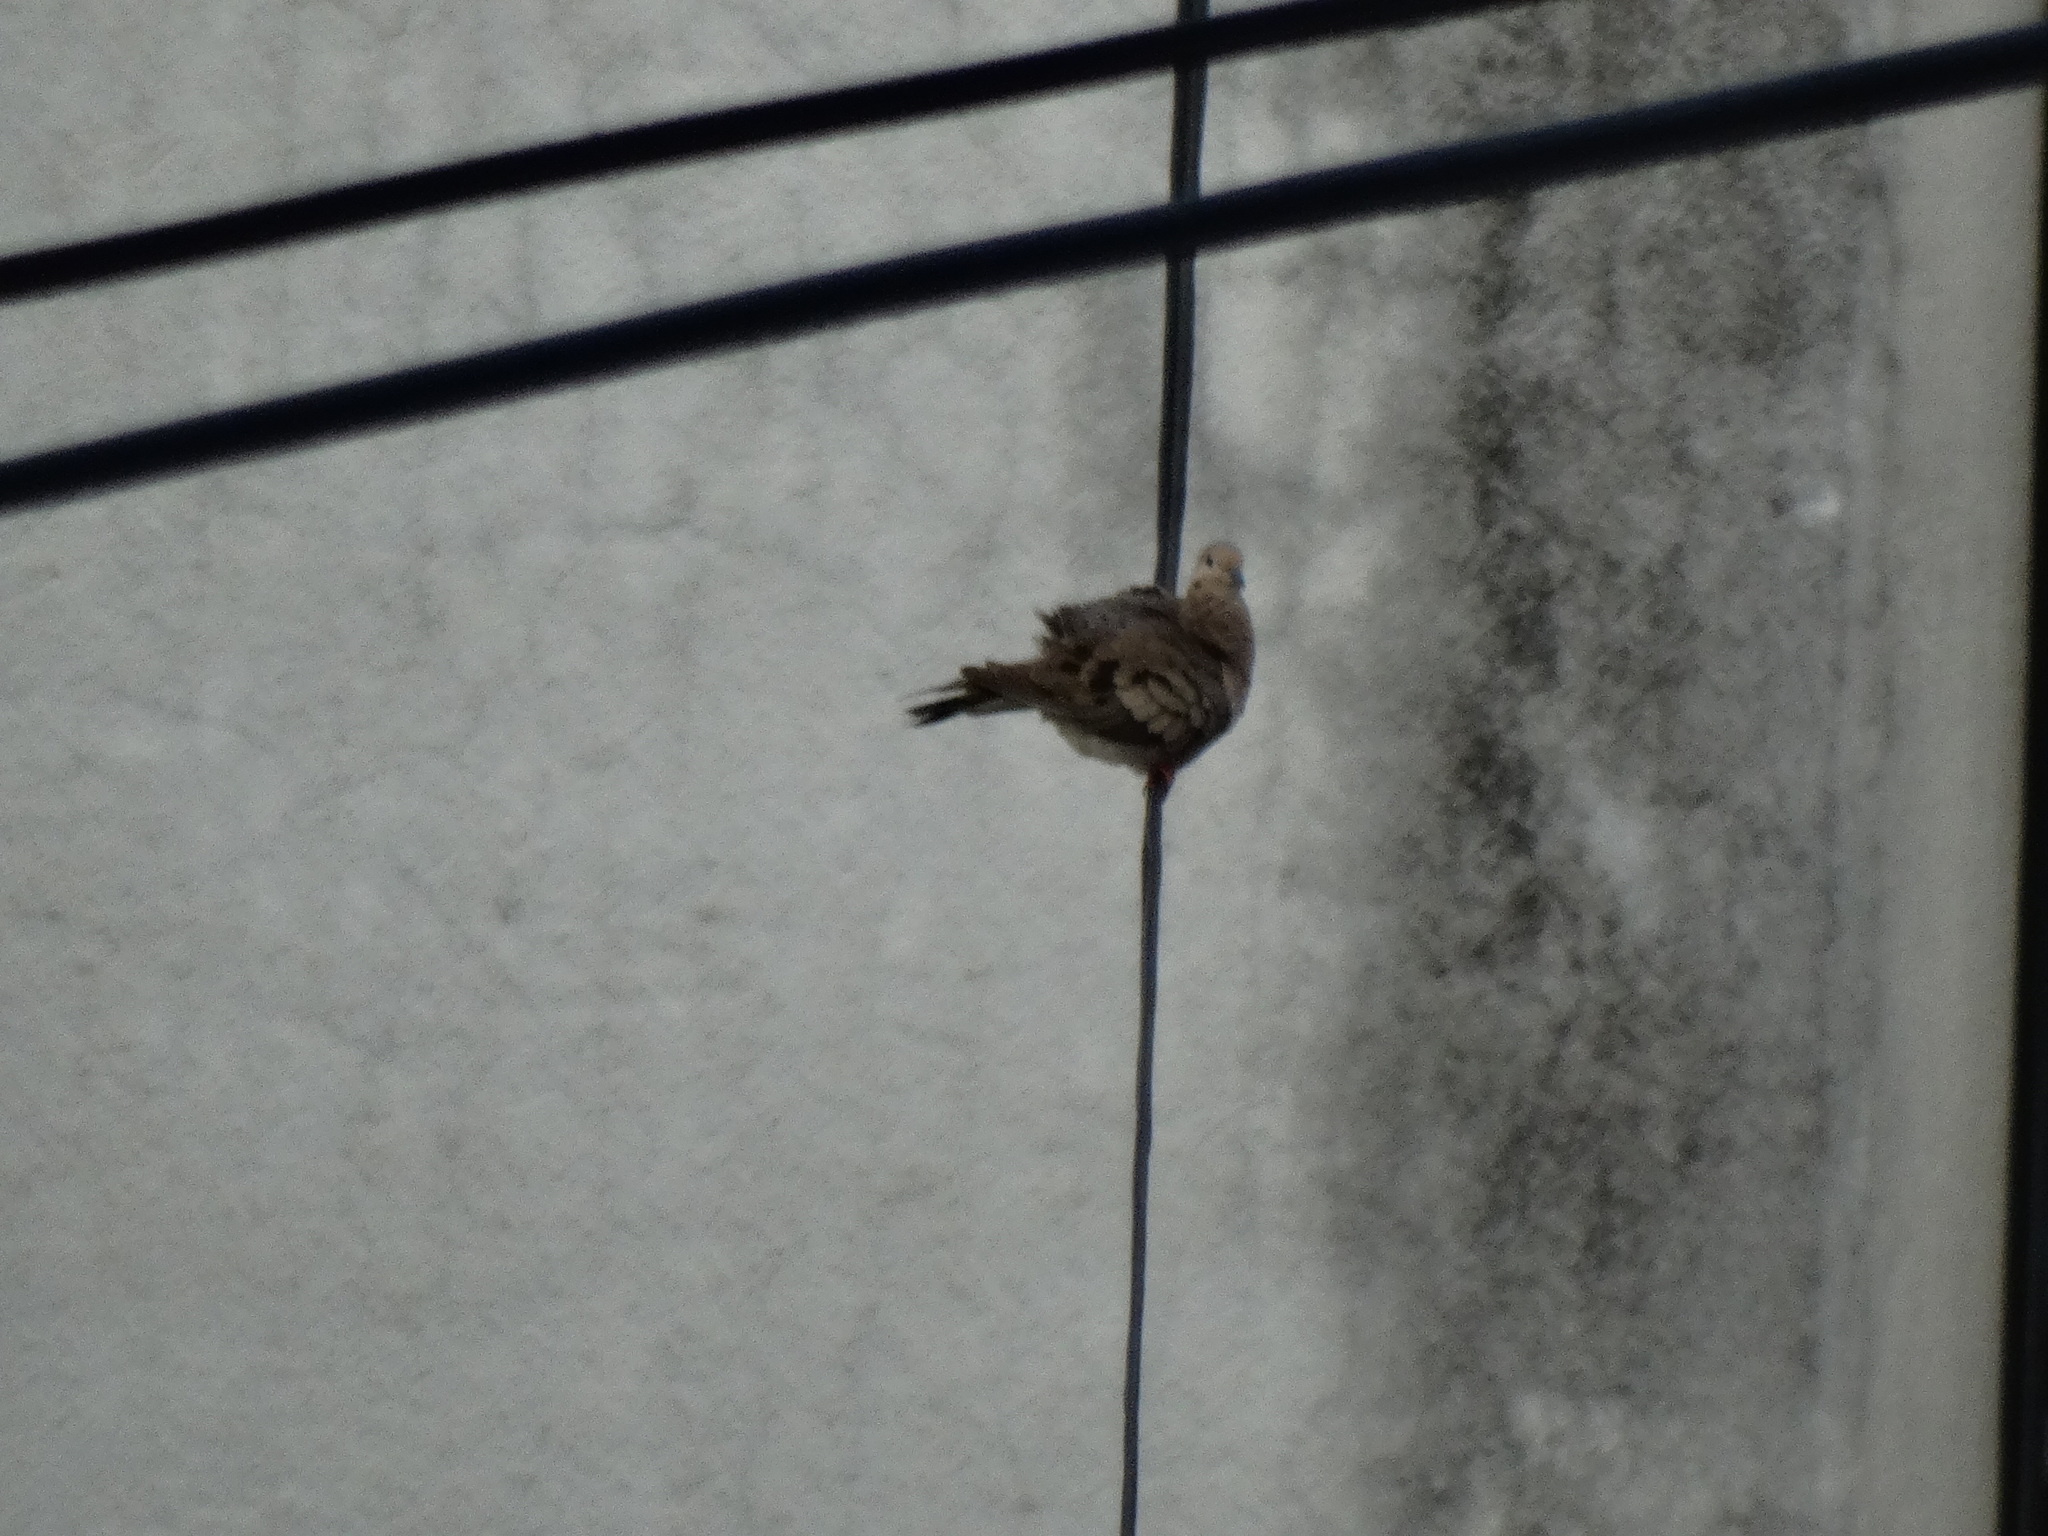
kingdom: Animalia
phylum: Chordata
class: Aves
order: Columbiformes
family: Columbidae
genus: Zenaida
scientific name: Zenaida auriculata
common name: Eared dove
